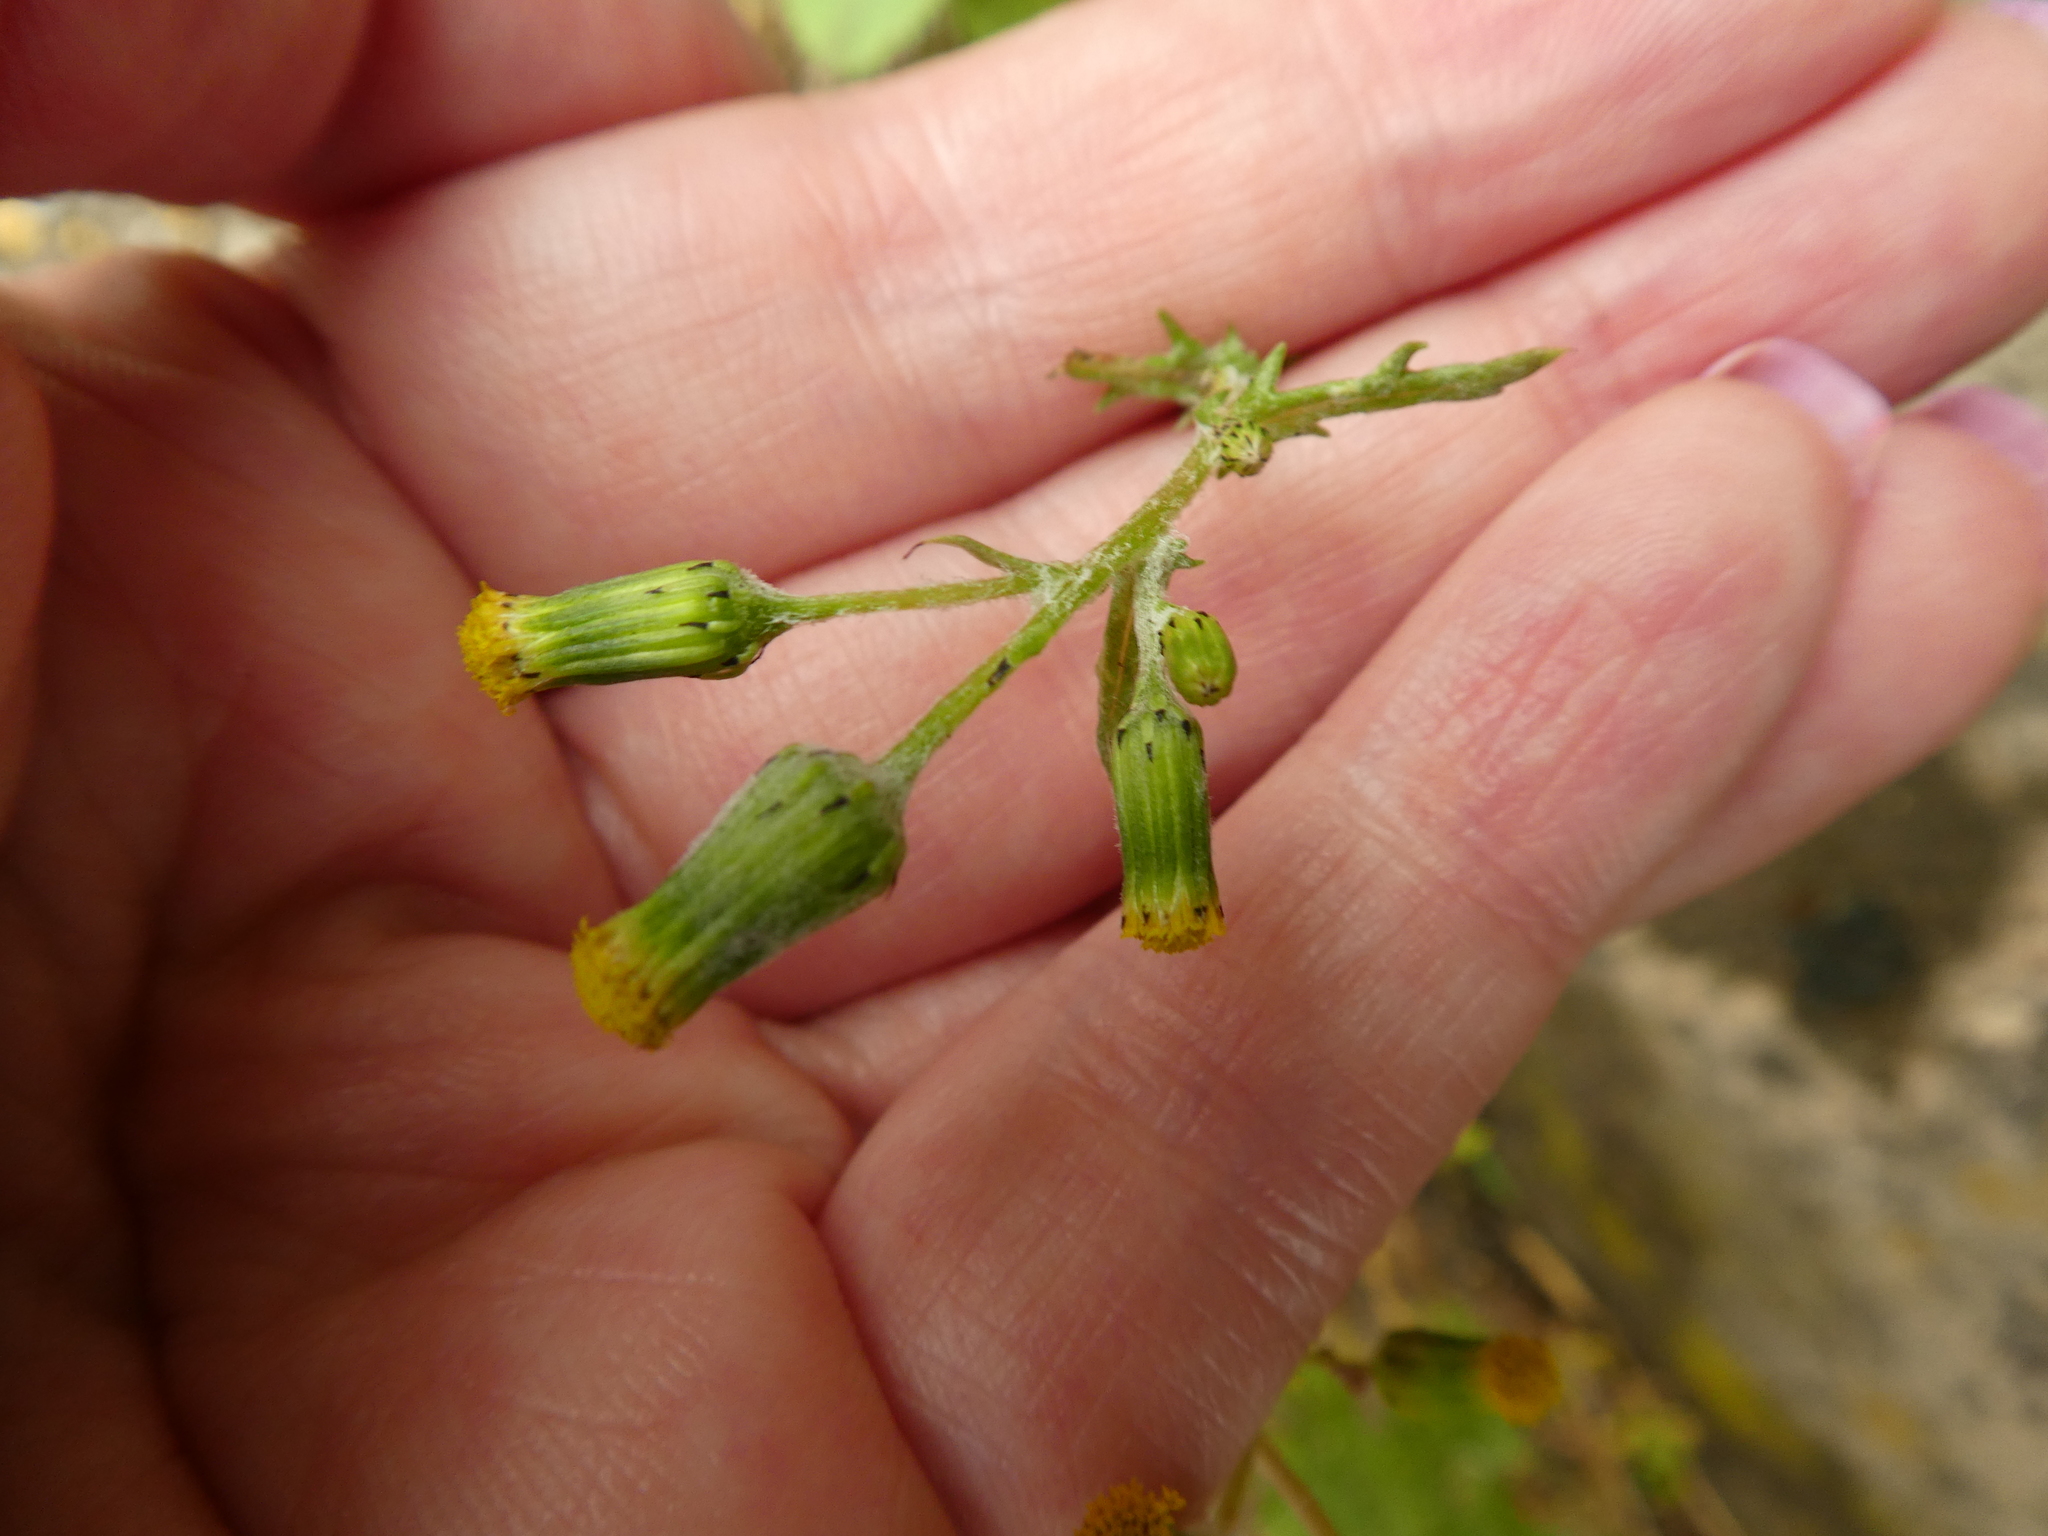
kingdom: Plantae
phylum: Tracheophyta
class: Magnoliopsida
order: Asterales
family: Asteraceae
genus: Senecio
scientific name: Senecio vulgaris
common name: Old-man-in-the-spring
